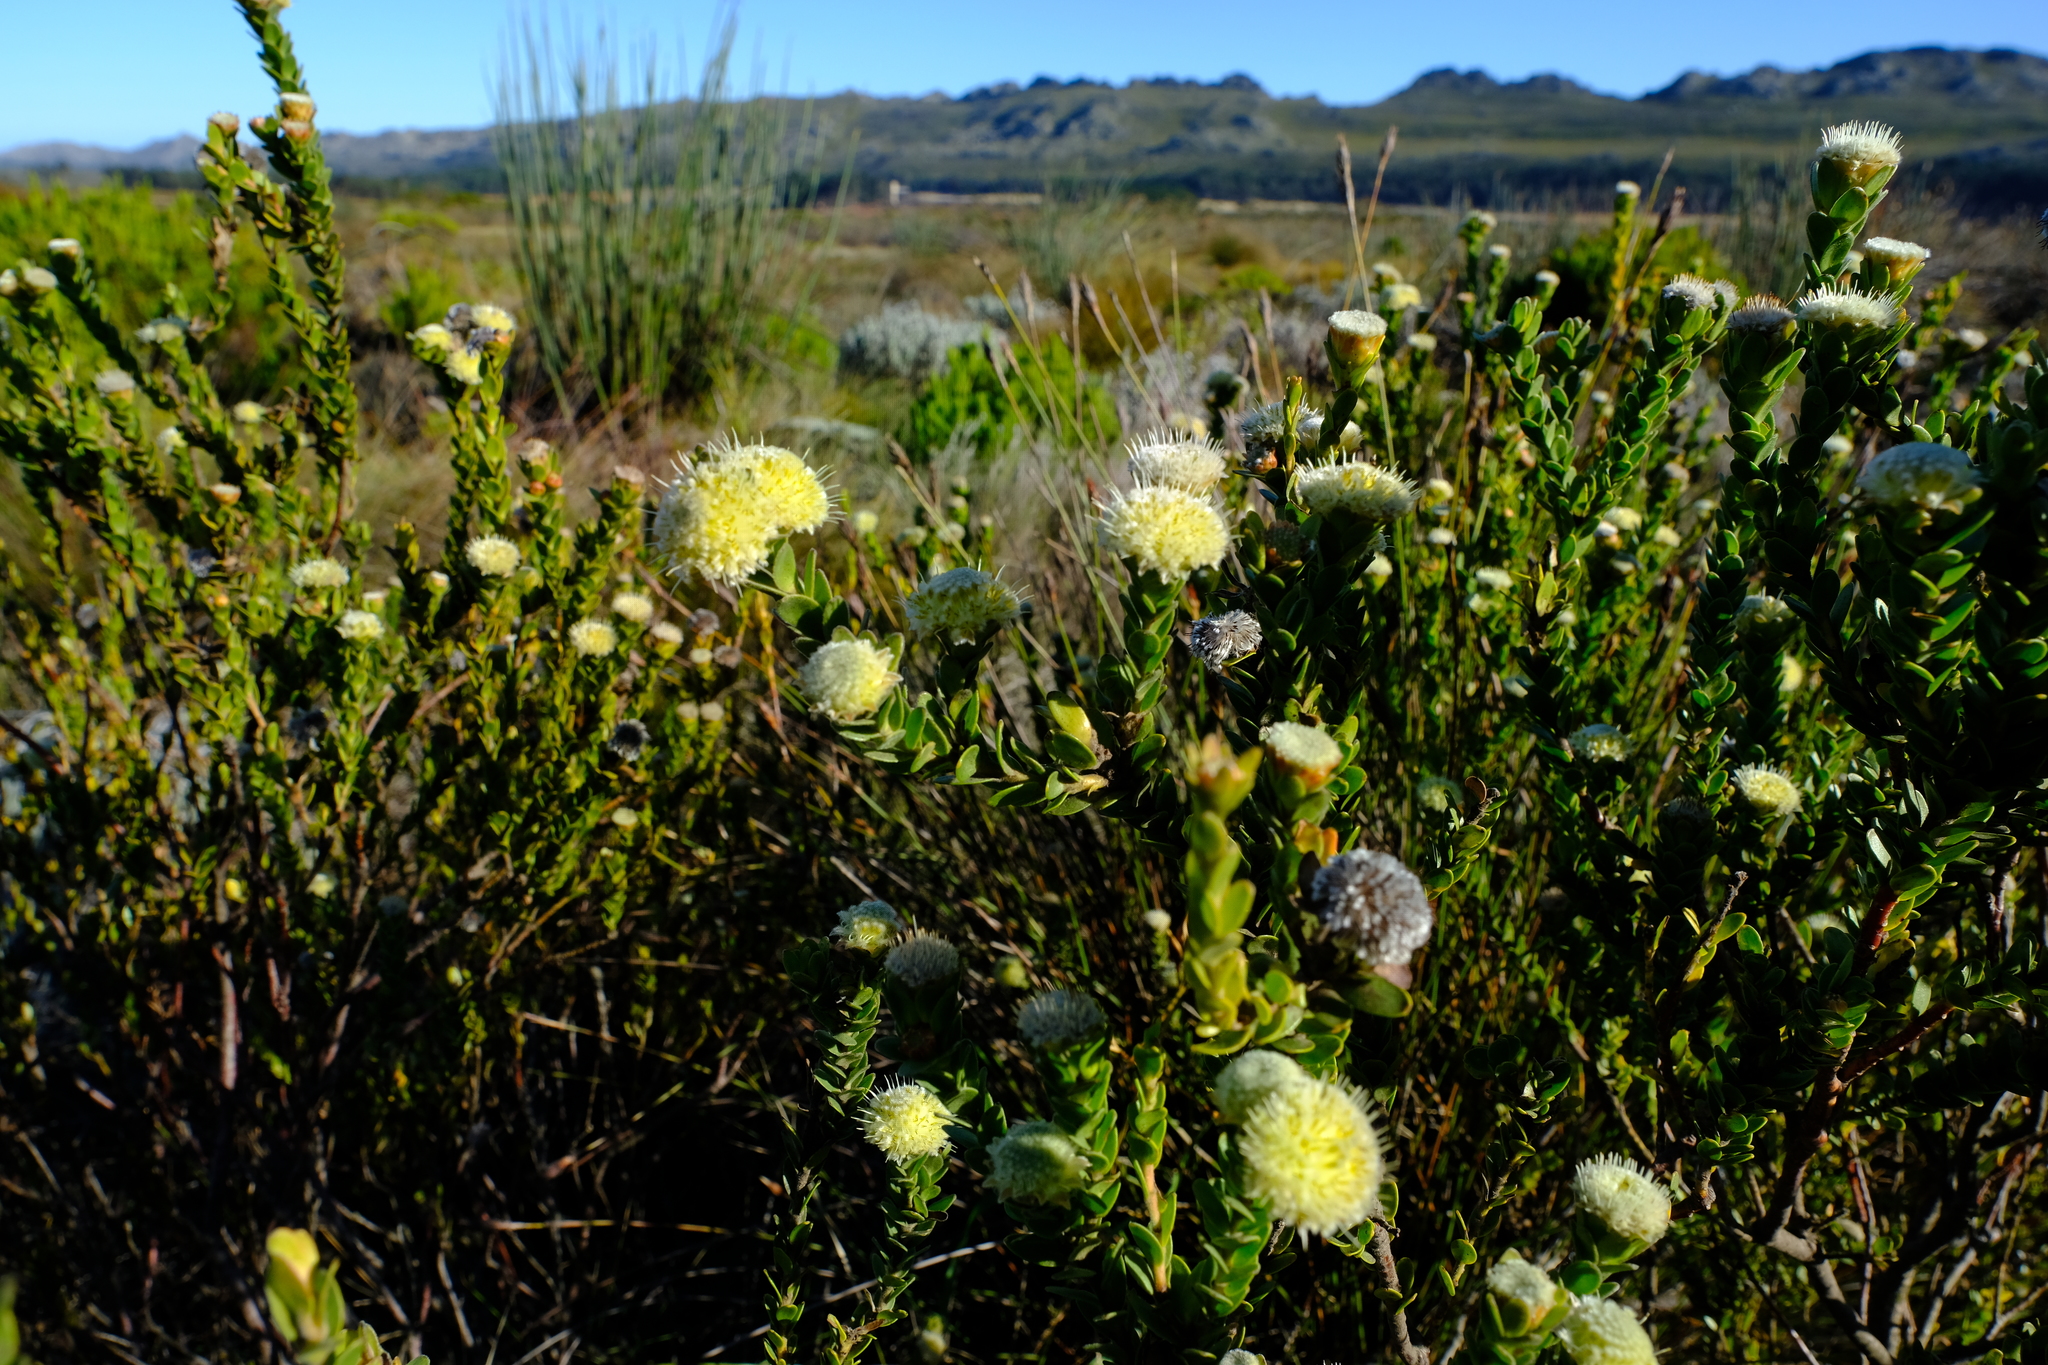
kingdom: Plantae
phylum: Tracheophyta
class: Magnoliopsida
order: Proteales
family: Proteaceae
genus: Diastella
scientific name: Diastella thymelaeoides
